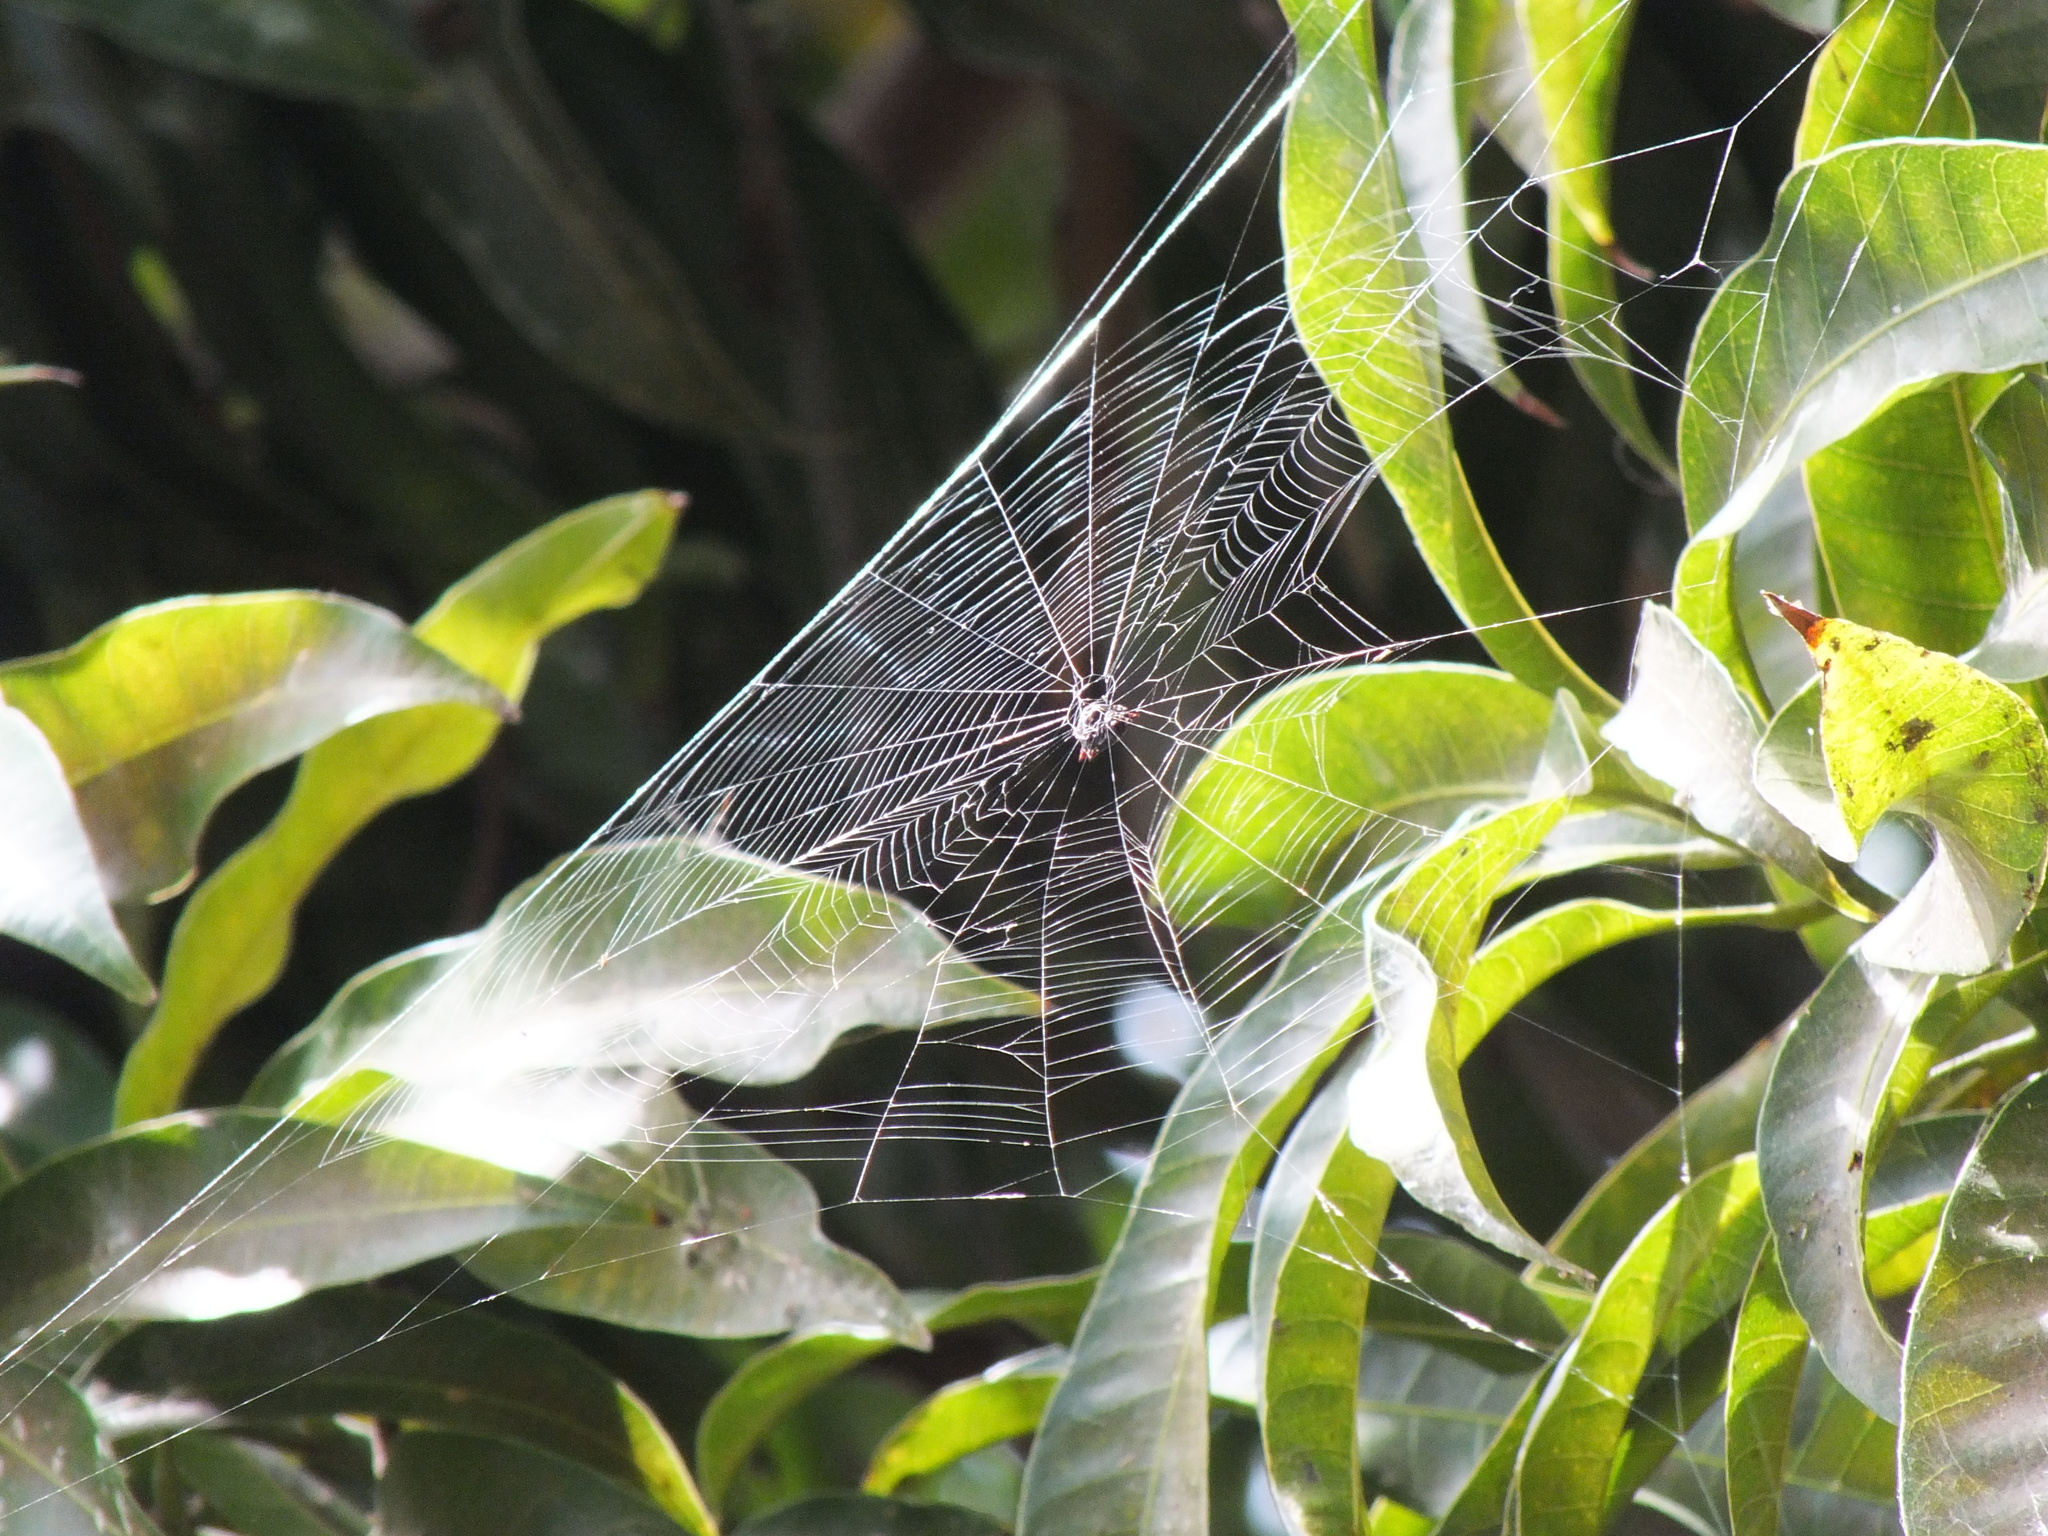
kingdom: Animalia
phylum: Arthropoda
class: Arachnida
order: Araneae
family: Araneidae
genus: Gasteracantha
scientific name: Gasteracantha cancriformis
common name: Orb weavers
